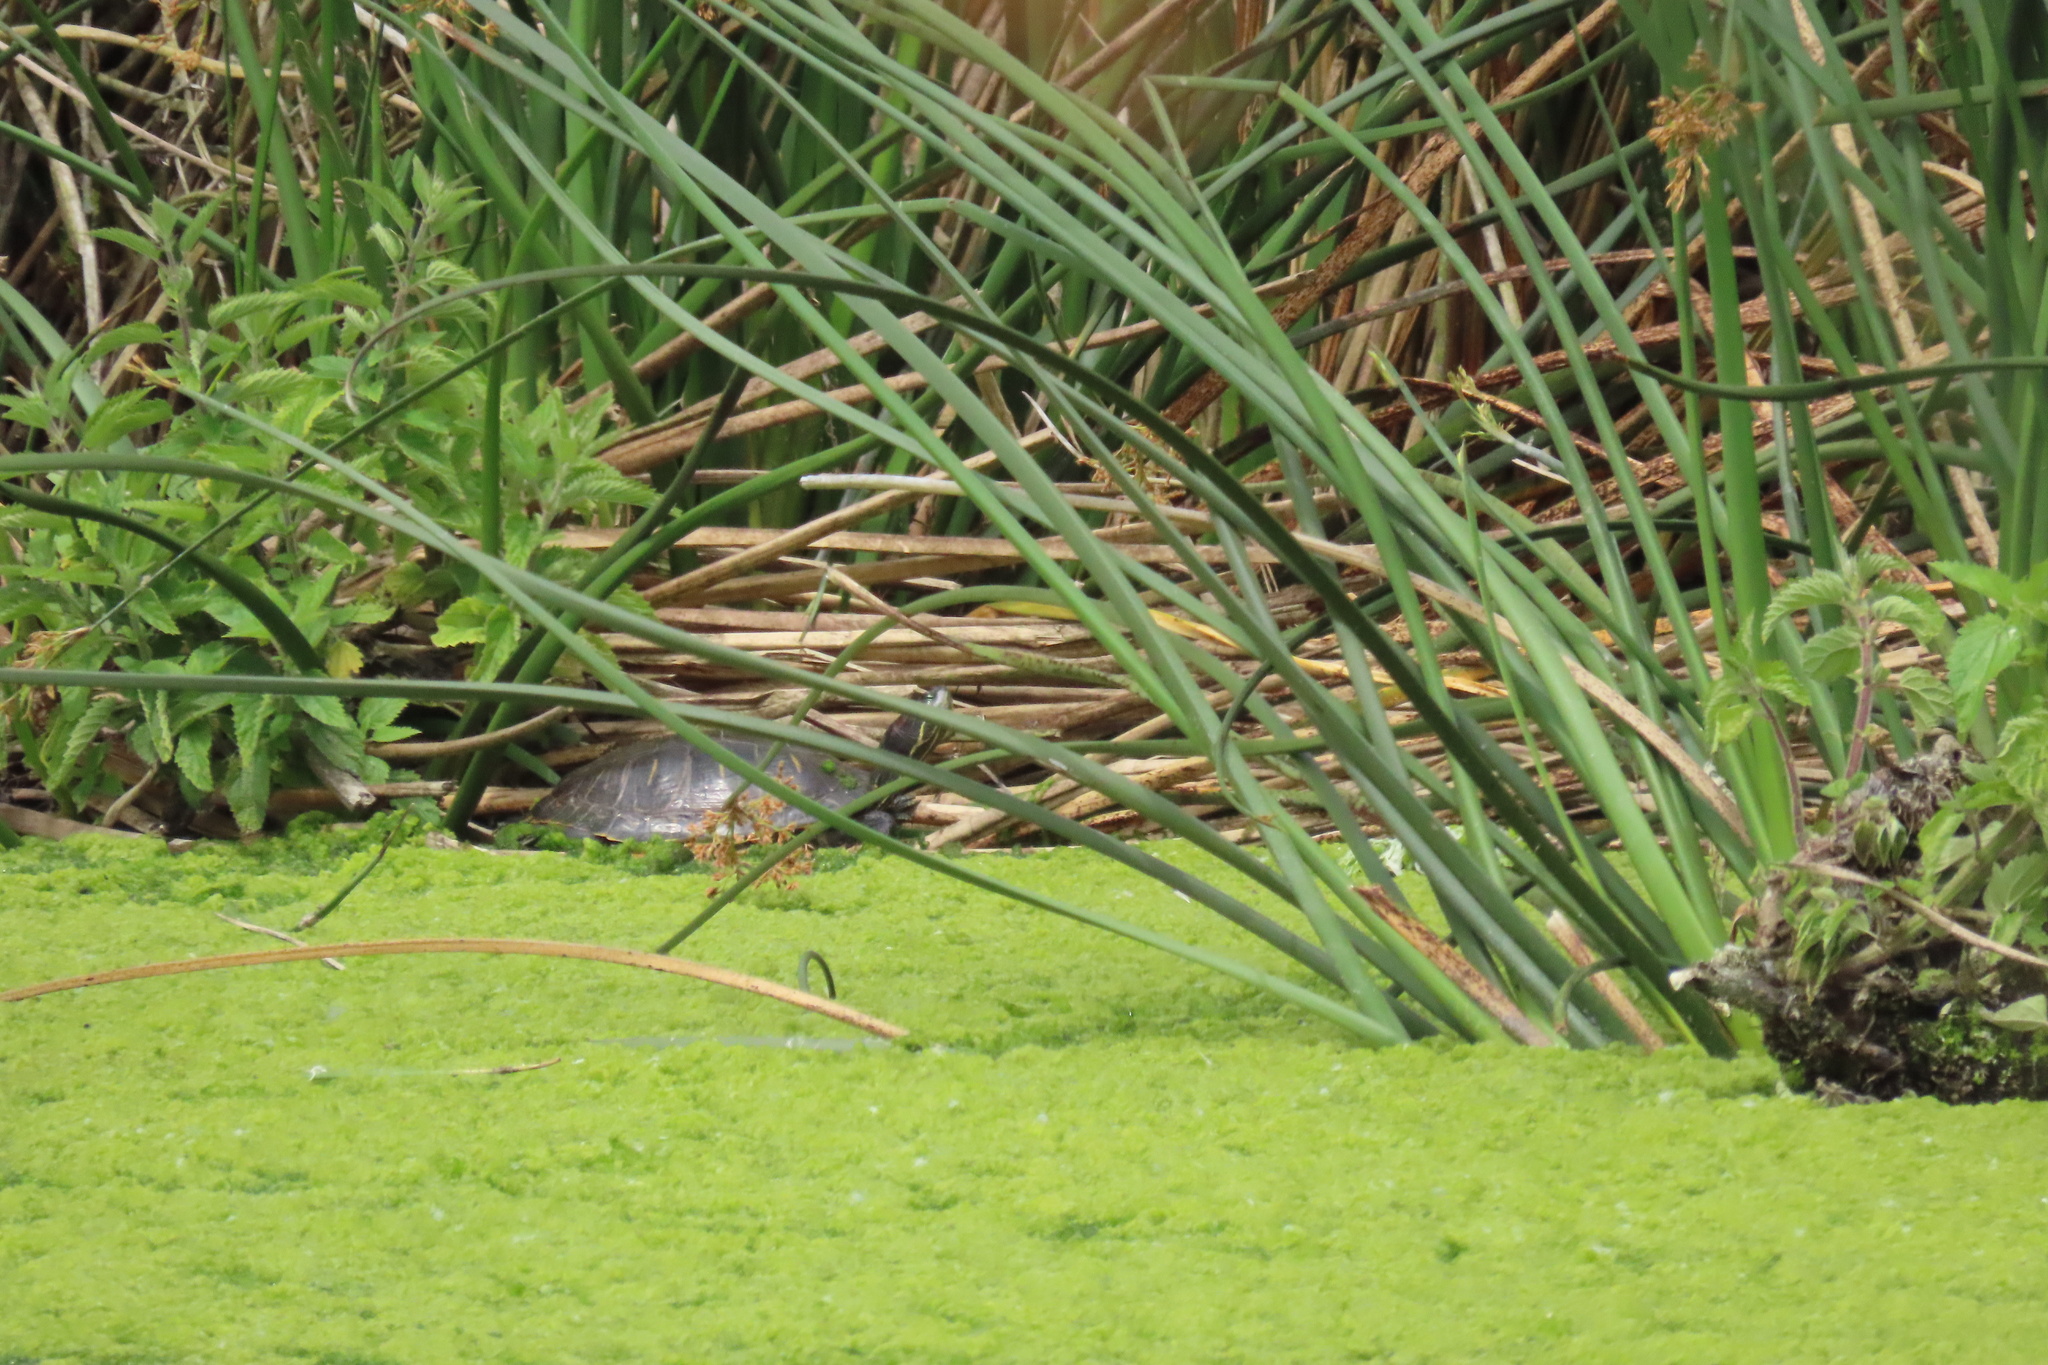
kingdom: Animalia
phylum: Chordata
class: Testudines
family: Emydidae
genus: Trachemys
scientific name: Trachemys scripta
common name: Slider
